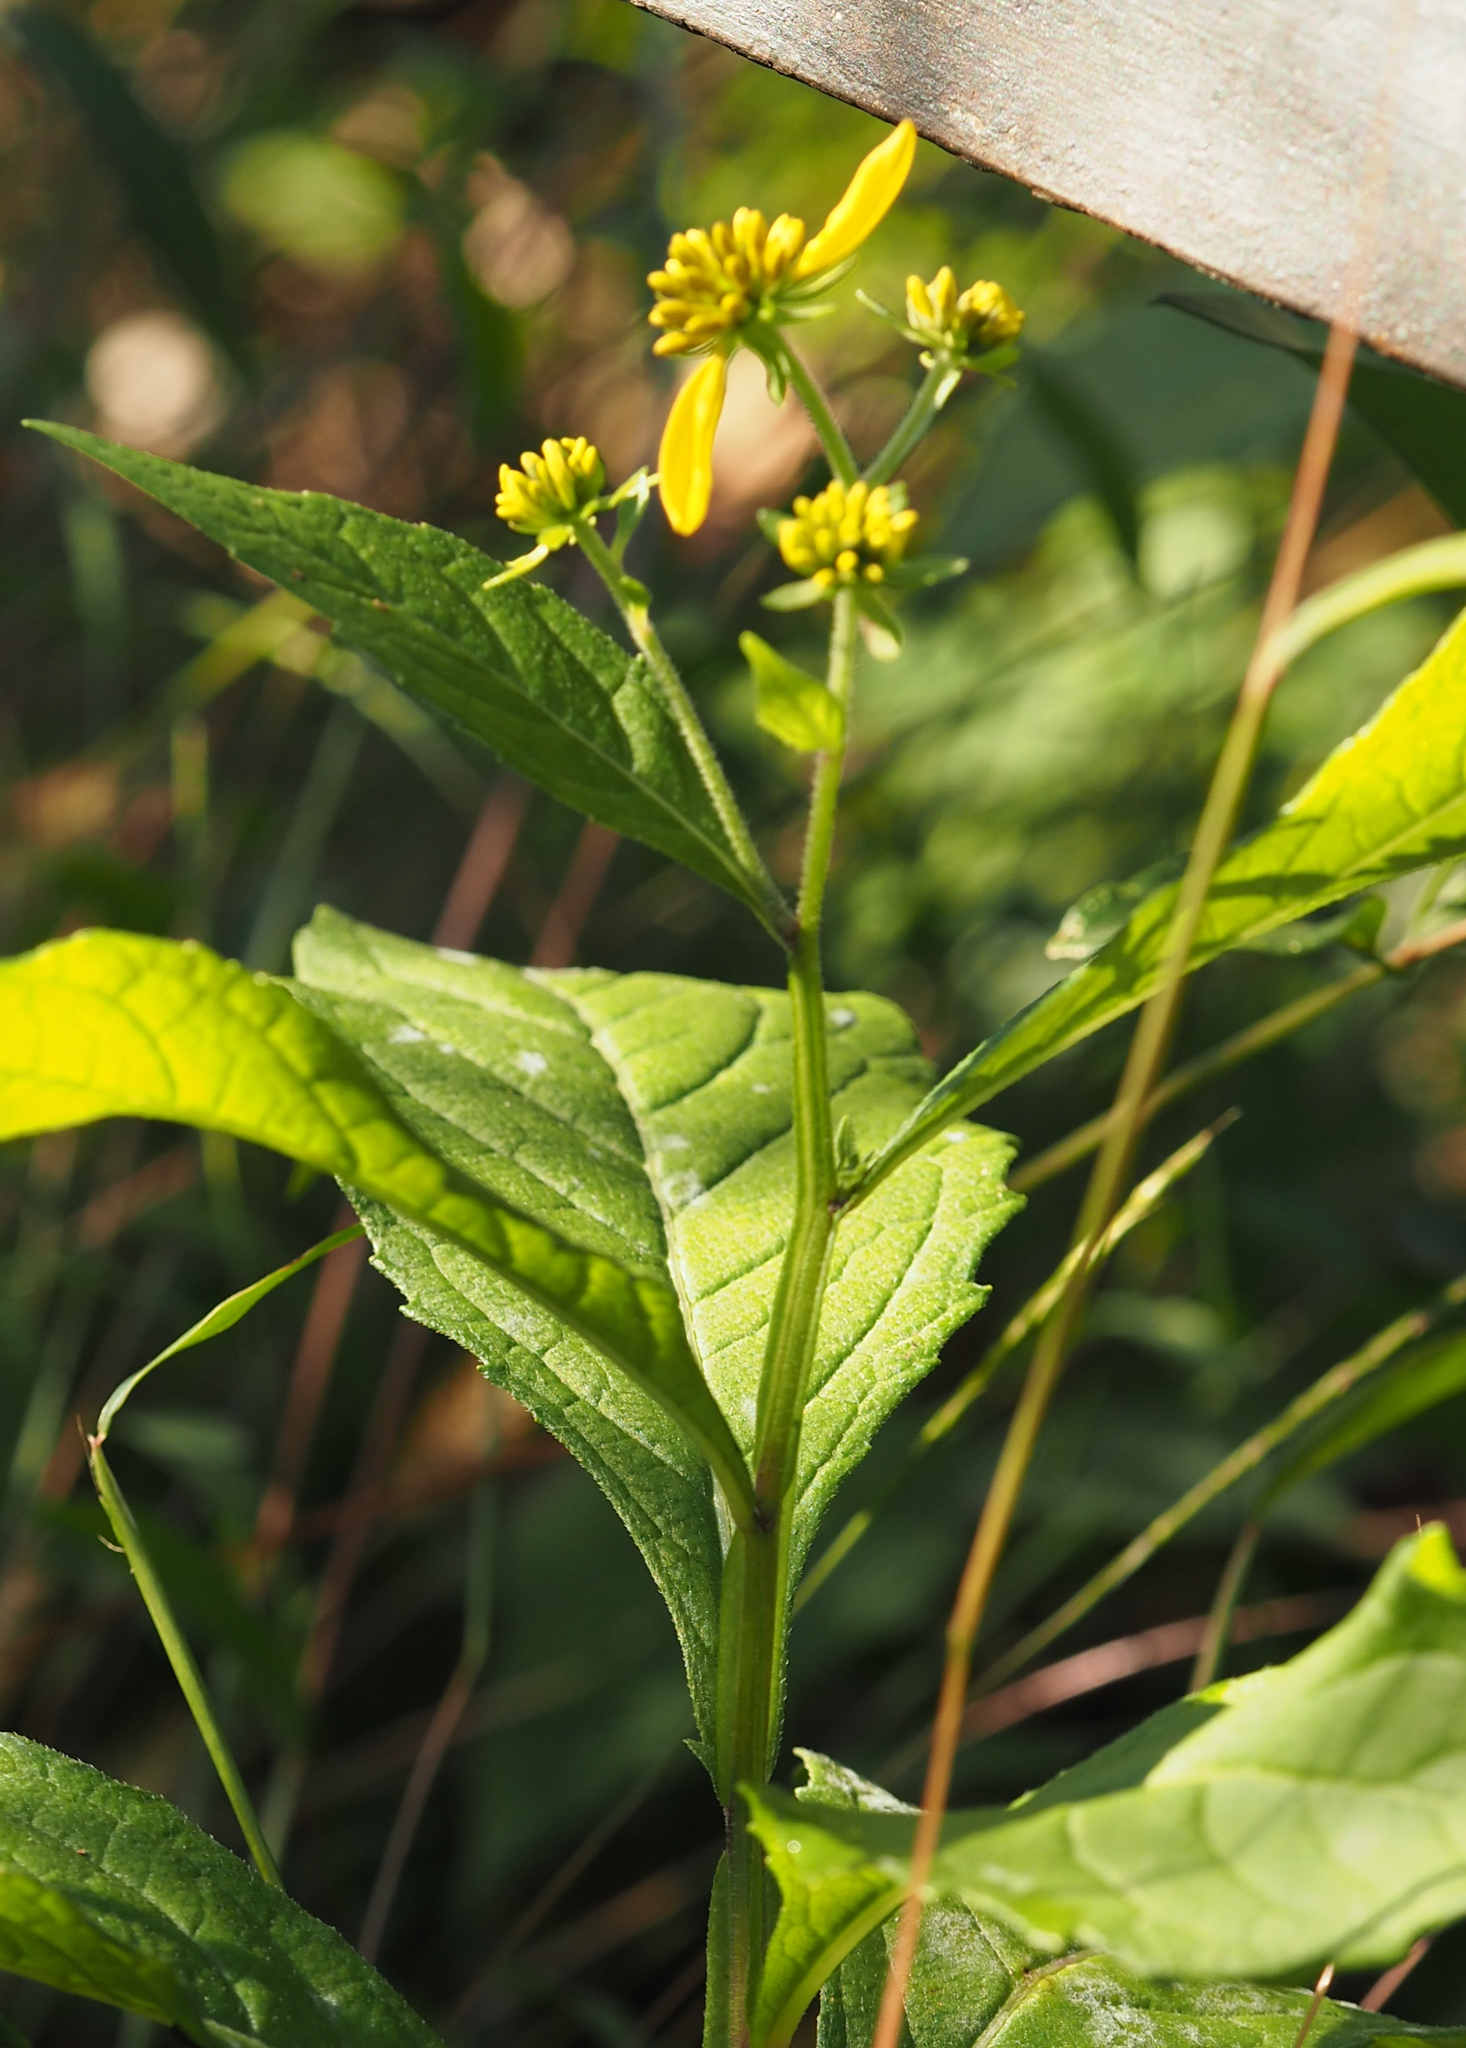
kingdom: Plantae
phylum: Tracheophyta
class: Magnoliopsida
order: Asterales
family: Asteraceae
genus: Verbesina
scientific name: Verbesina alternifolia
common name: Wingstem
